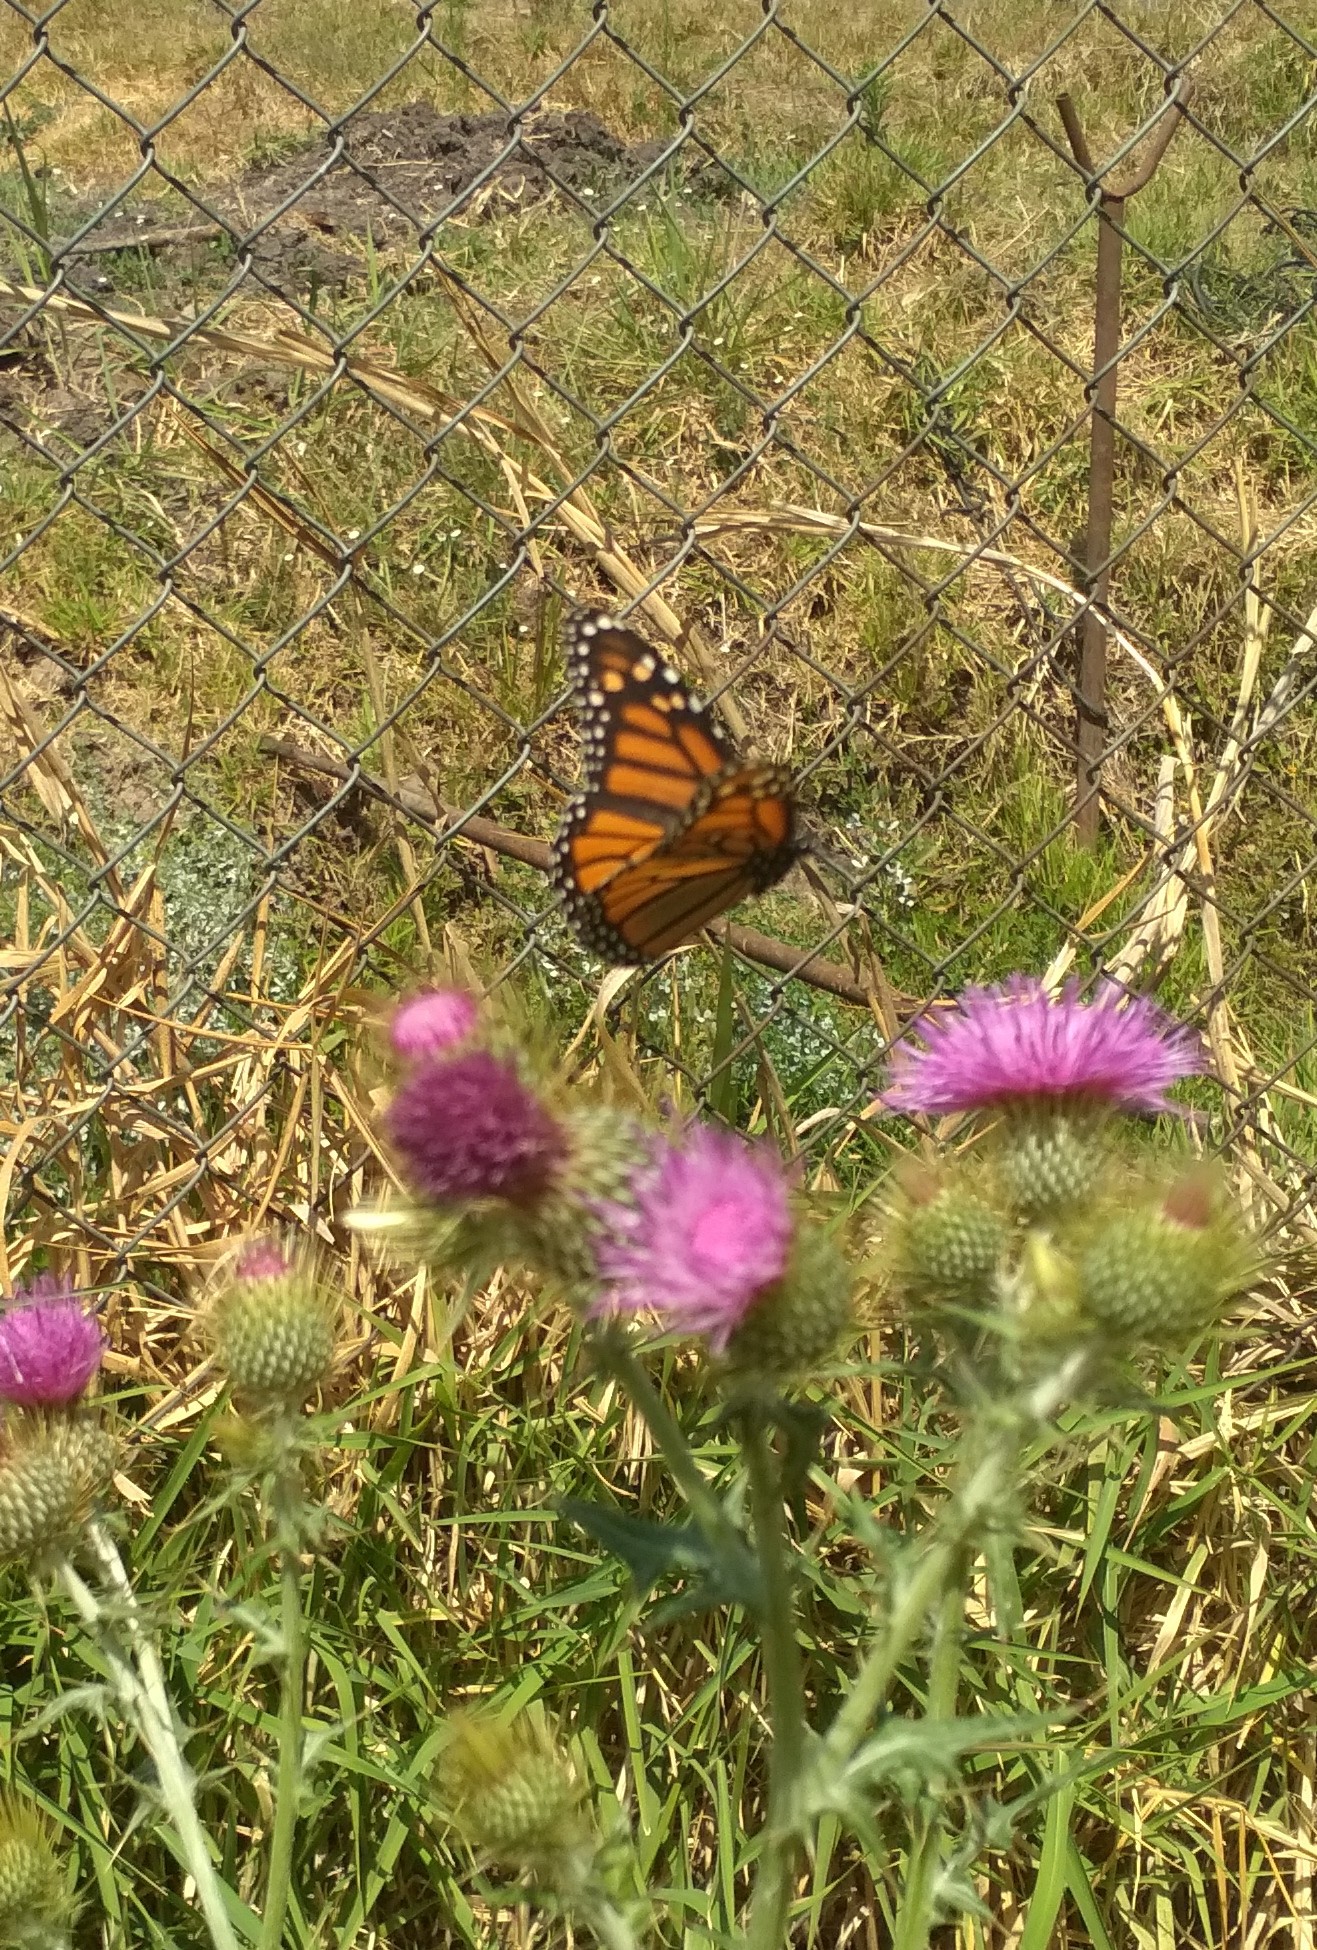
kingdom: Animalia
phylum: Arthropoda
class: Insecta
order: Lepidoptera
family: Nymphalidae
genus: Danaus
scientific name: Danaus plexippus
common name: Monarch
